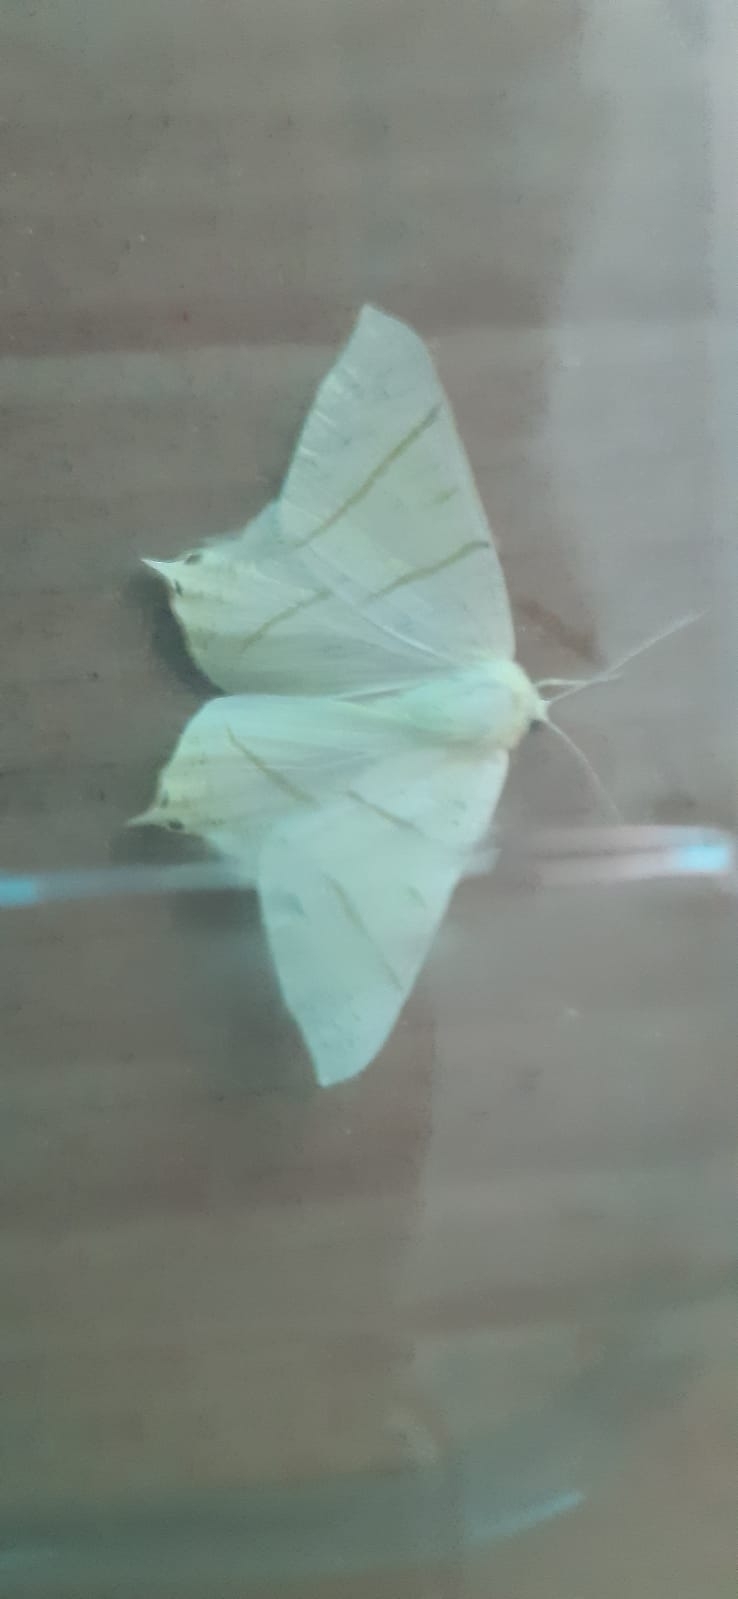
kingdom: Animalia
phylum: Arthropoda
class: Insecta
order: Lepidoptera
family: Geometridae
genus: Ourapteryx
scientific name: Ourapteryx sambucaria
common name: Swallow-tailed moth
